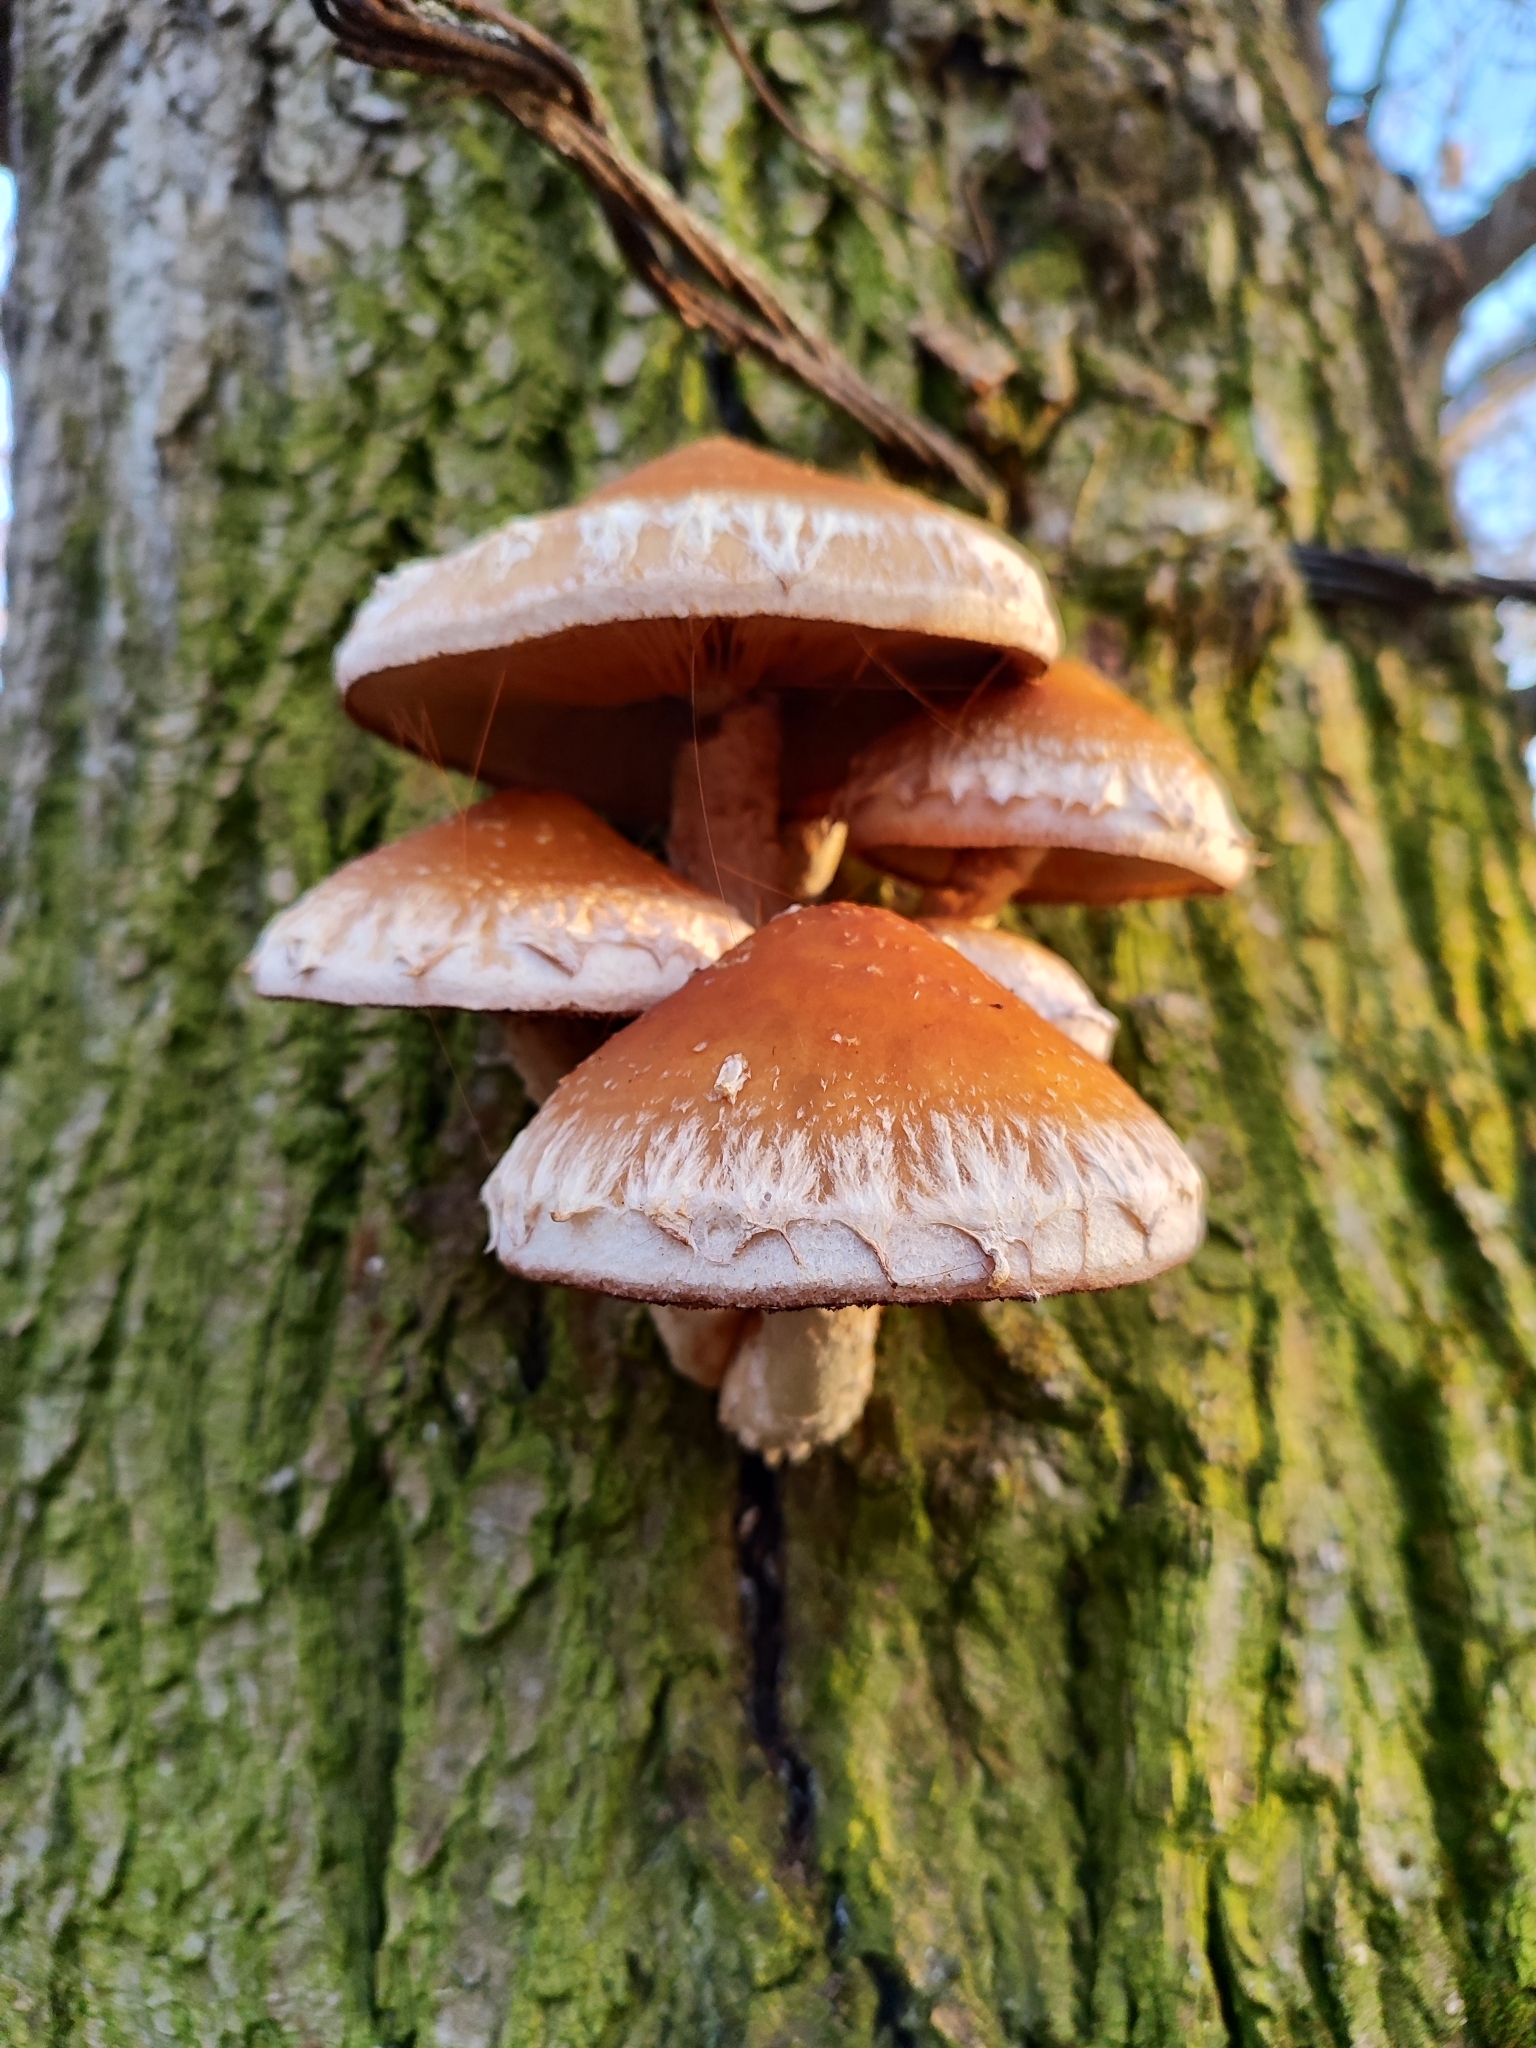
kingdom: Fungi
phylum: Basidiomycota
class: Agaricomycetes
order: Agaricales
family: Strophariaceae
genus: Pholiota
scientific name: Pholiota populnea
